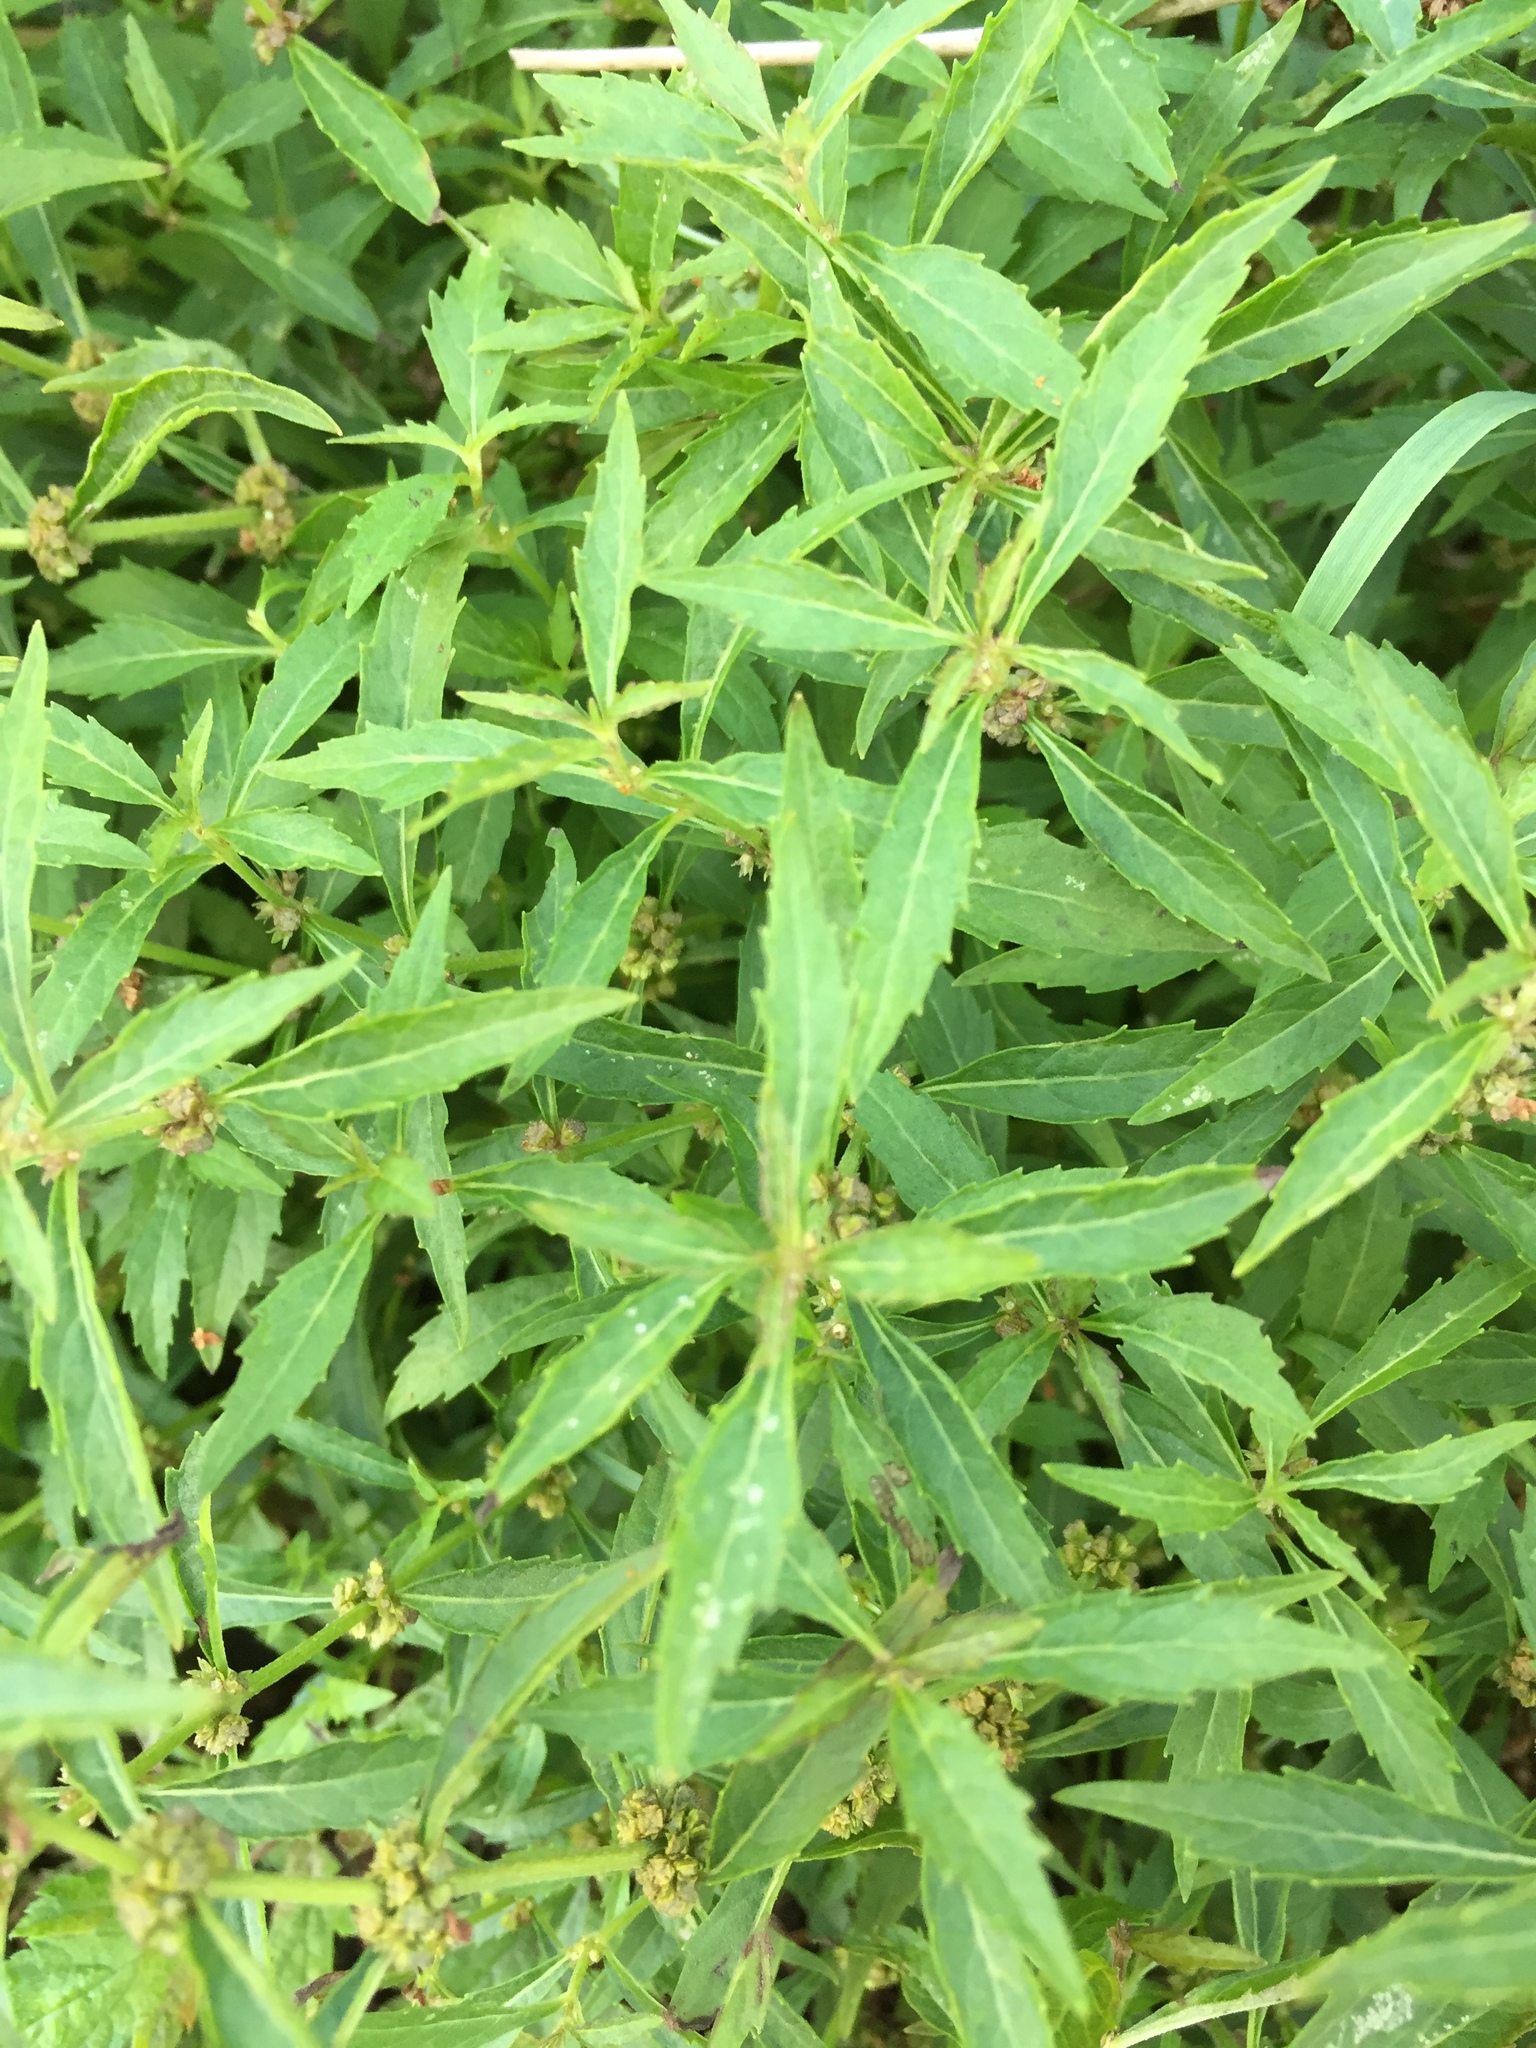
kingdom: Plantae
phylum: Tracheophyta
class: Magnoliopsida
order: Lamiales
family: Lamiaceae
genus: Lycopus
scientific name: Lycopus uniflorus
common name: Northern bugleweed
